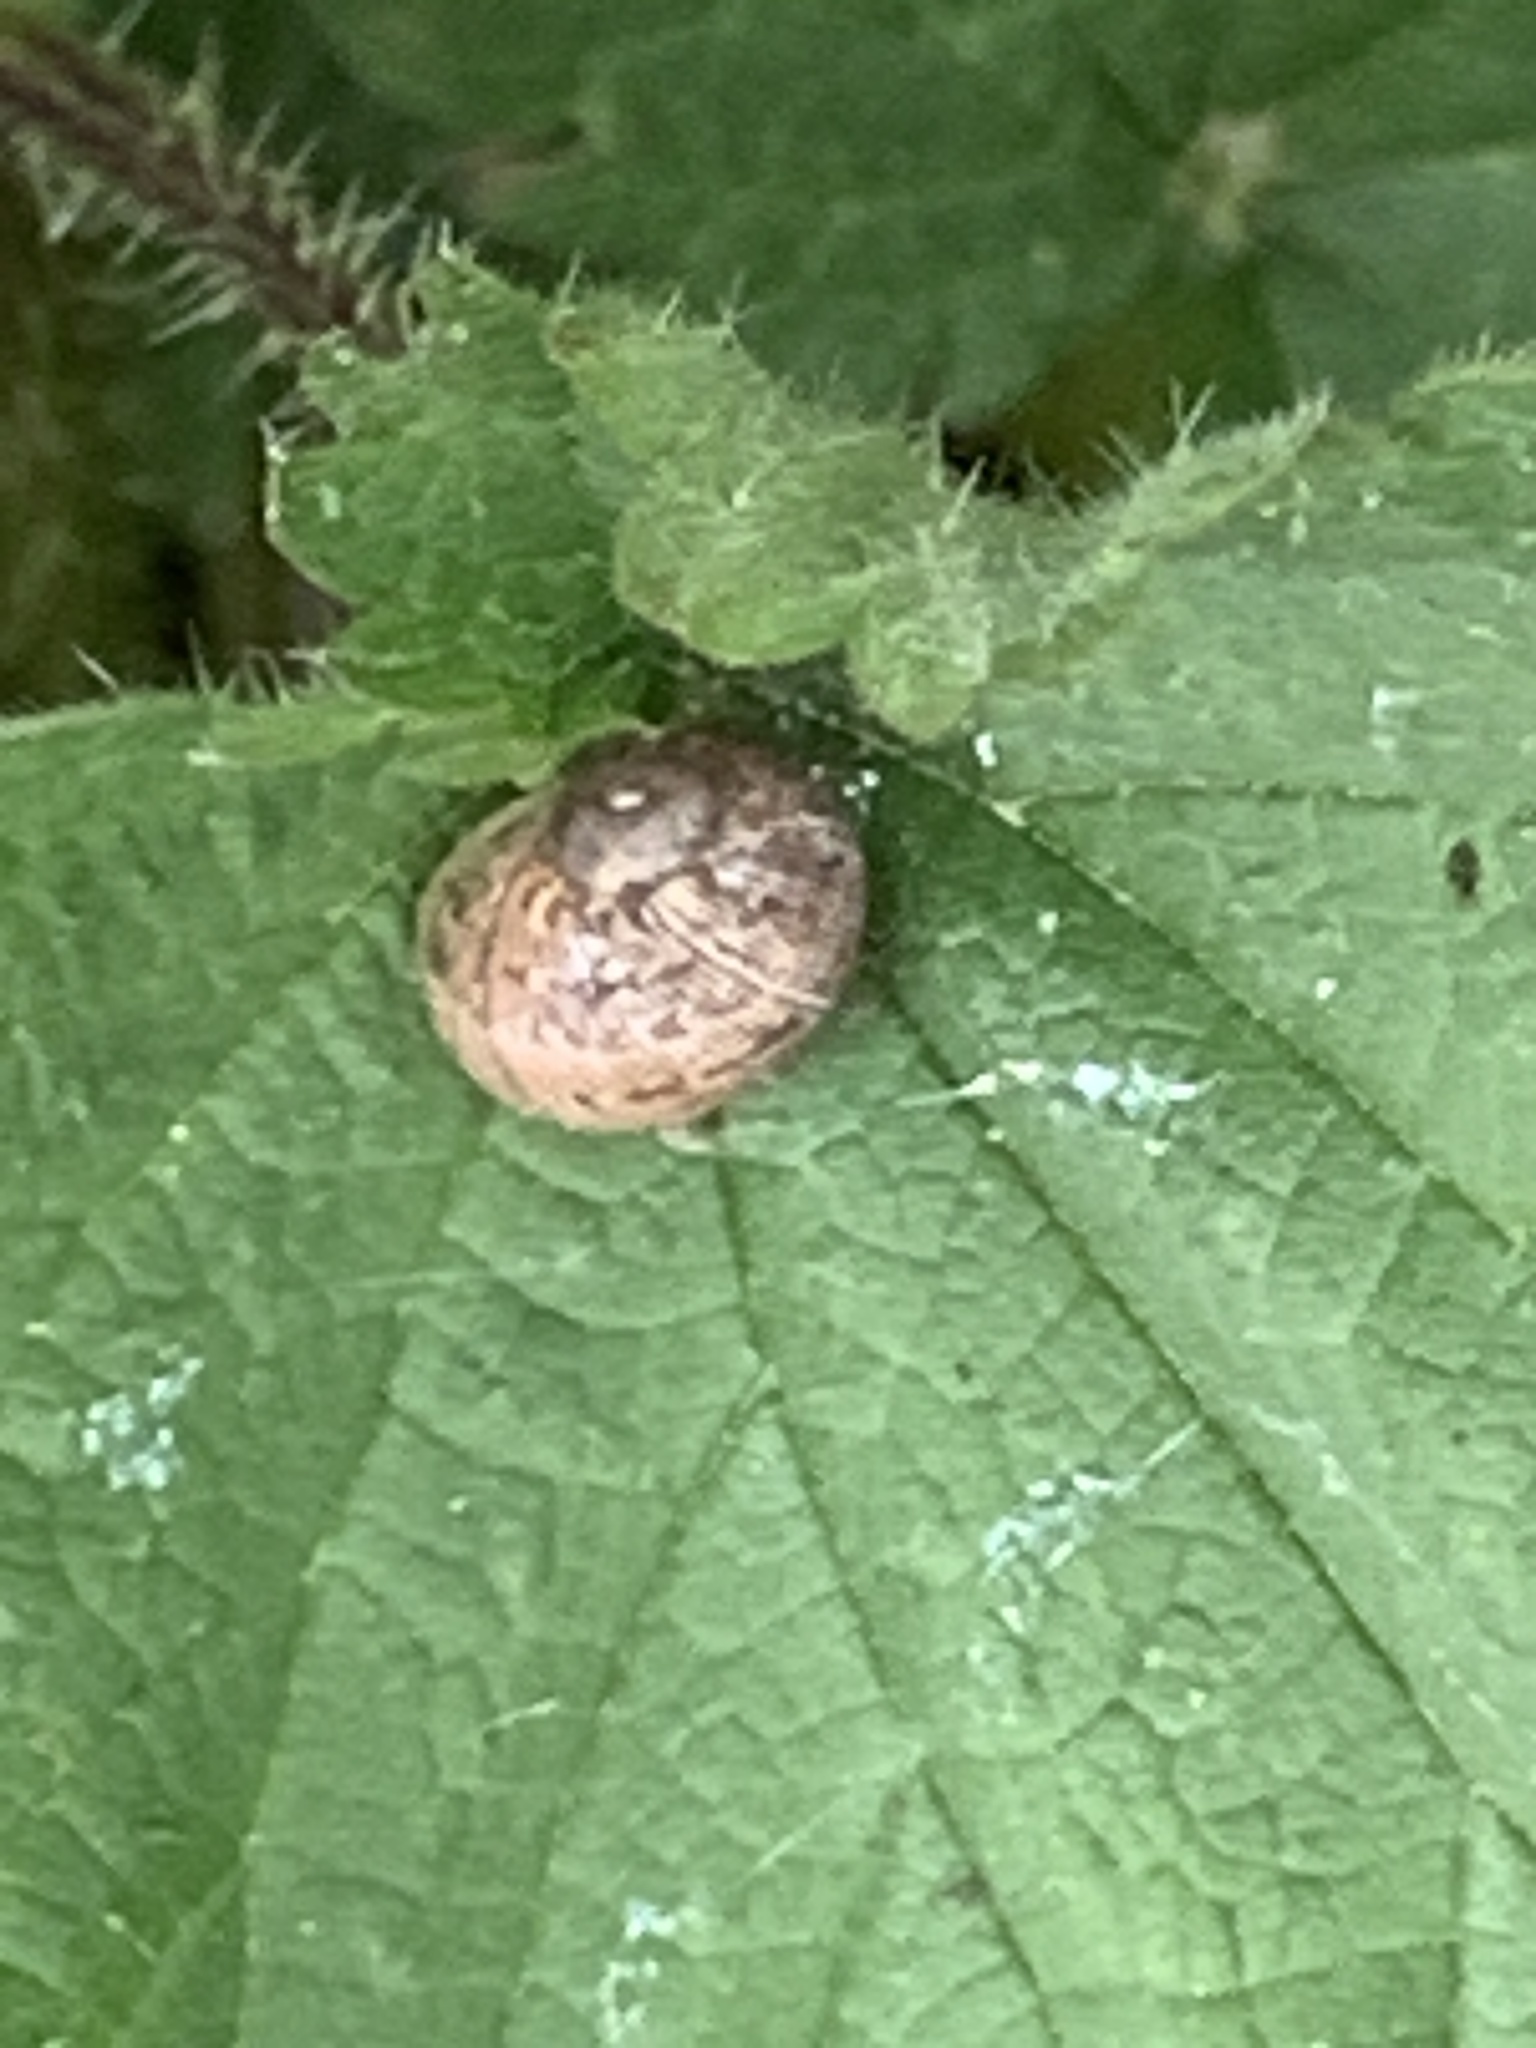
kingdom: Animalia
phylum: Mollusca
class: Gastropoda
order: Stylommatophora
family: Helicidae
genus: Cornu
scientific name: Cornu aspersum
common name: Brown garden snail
